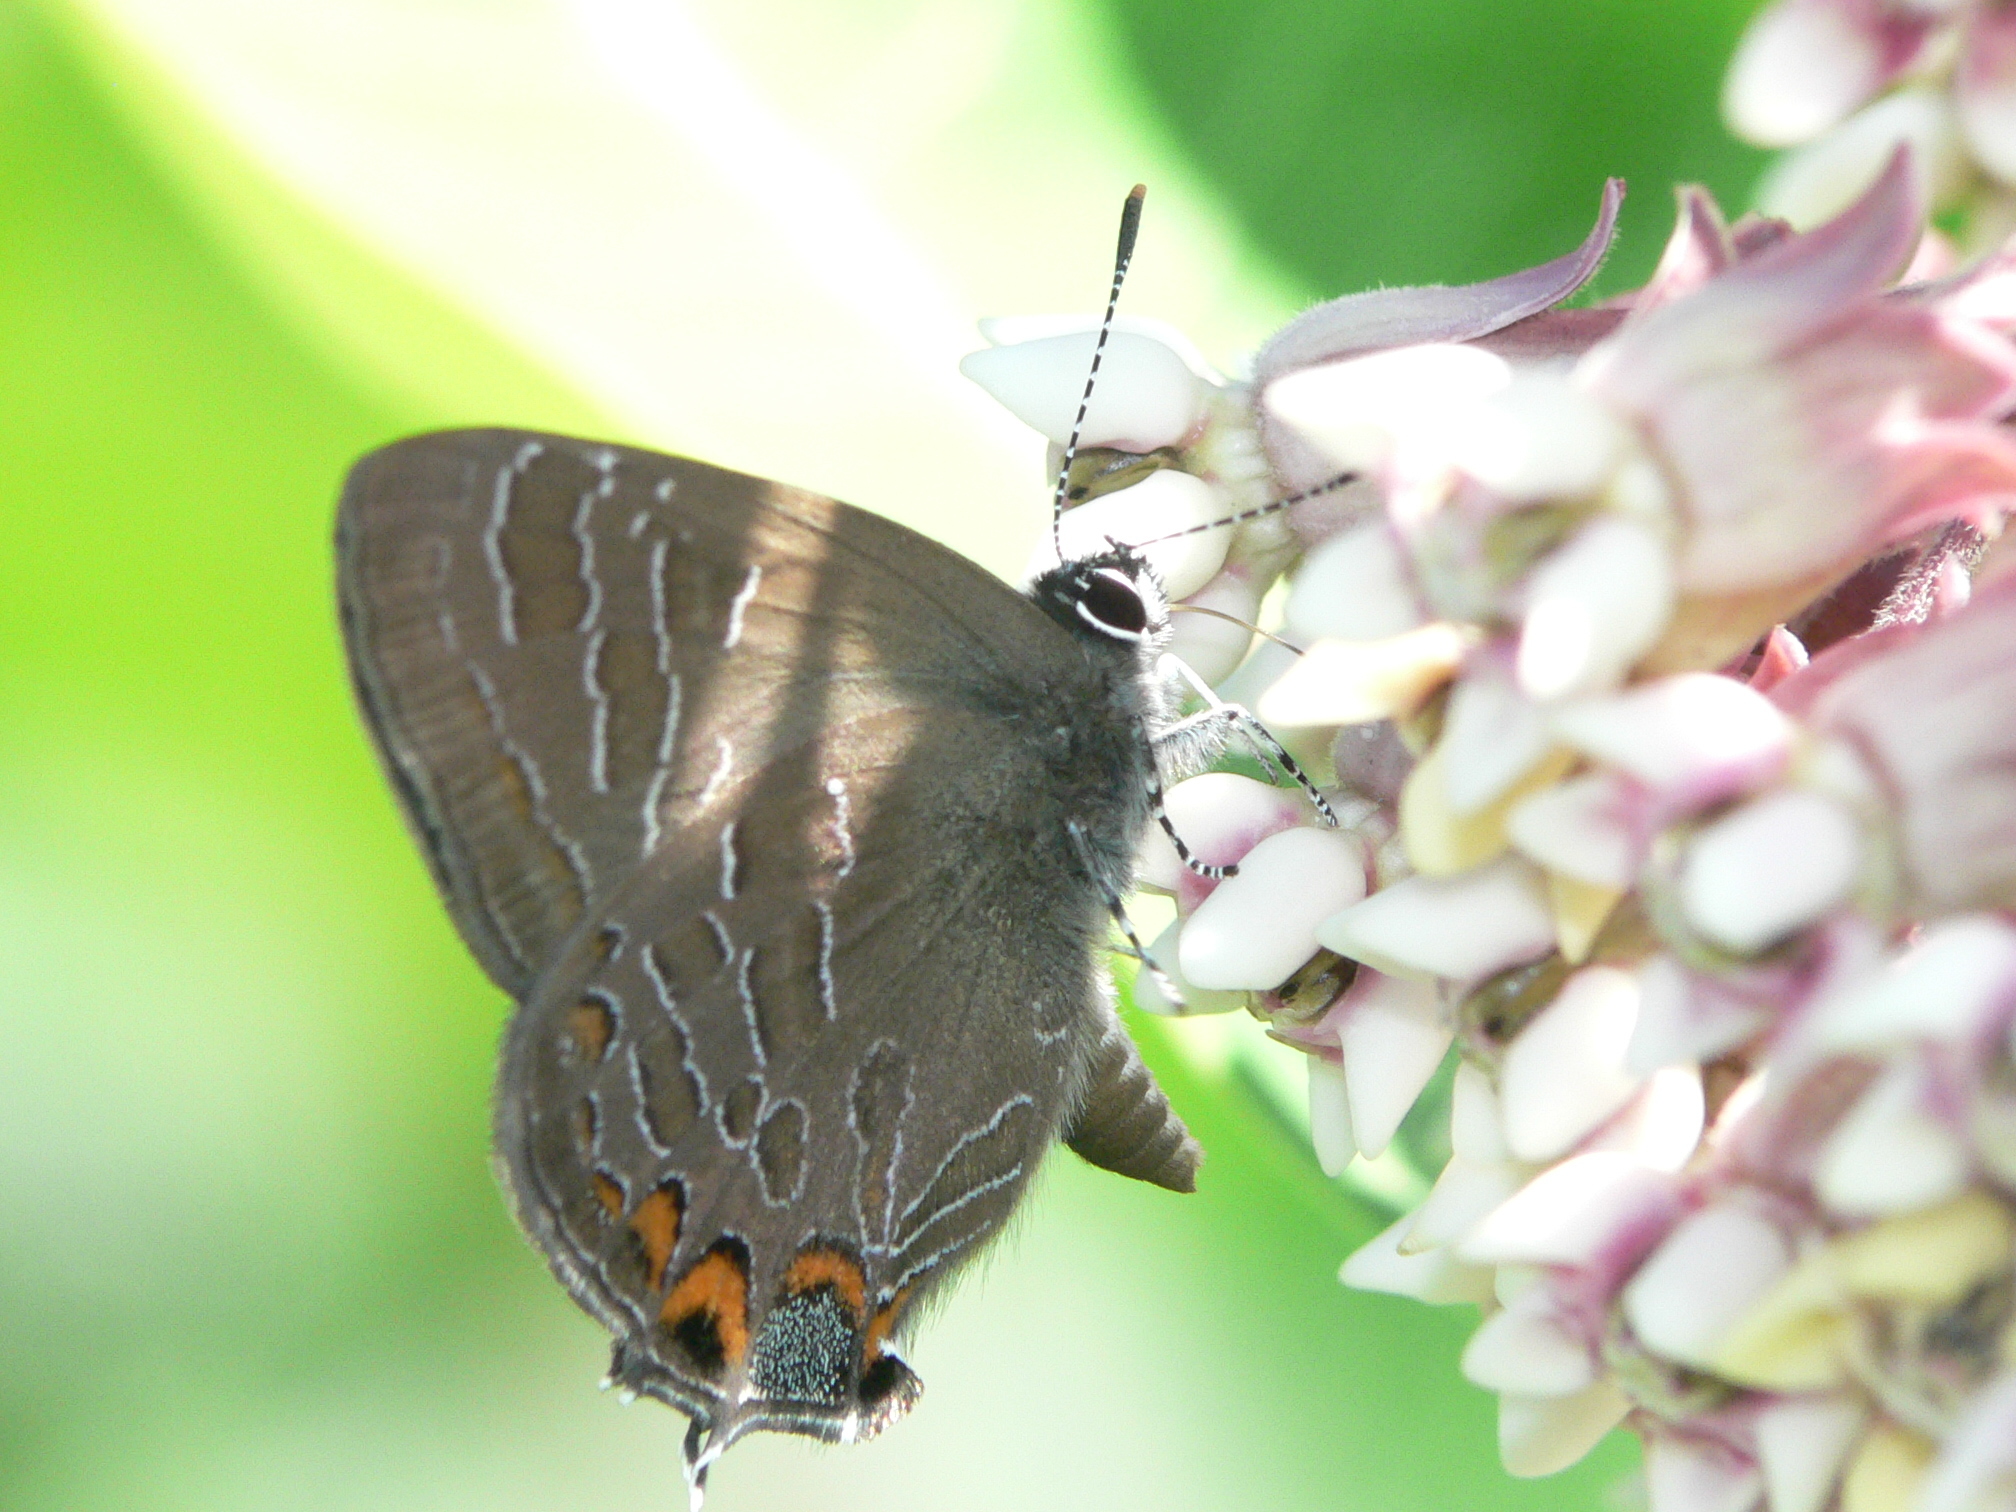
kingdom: Animalia
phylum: Arthropoda
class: Insecta
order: Lepidoptera
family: Lycaenidae
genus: Satyrium
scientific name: Satyrium liparops
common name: Striped hairstreak
